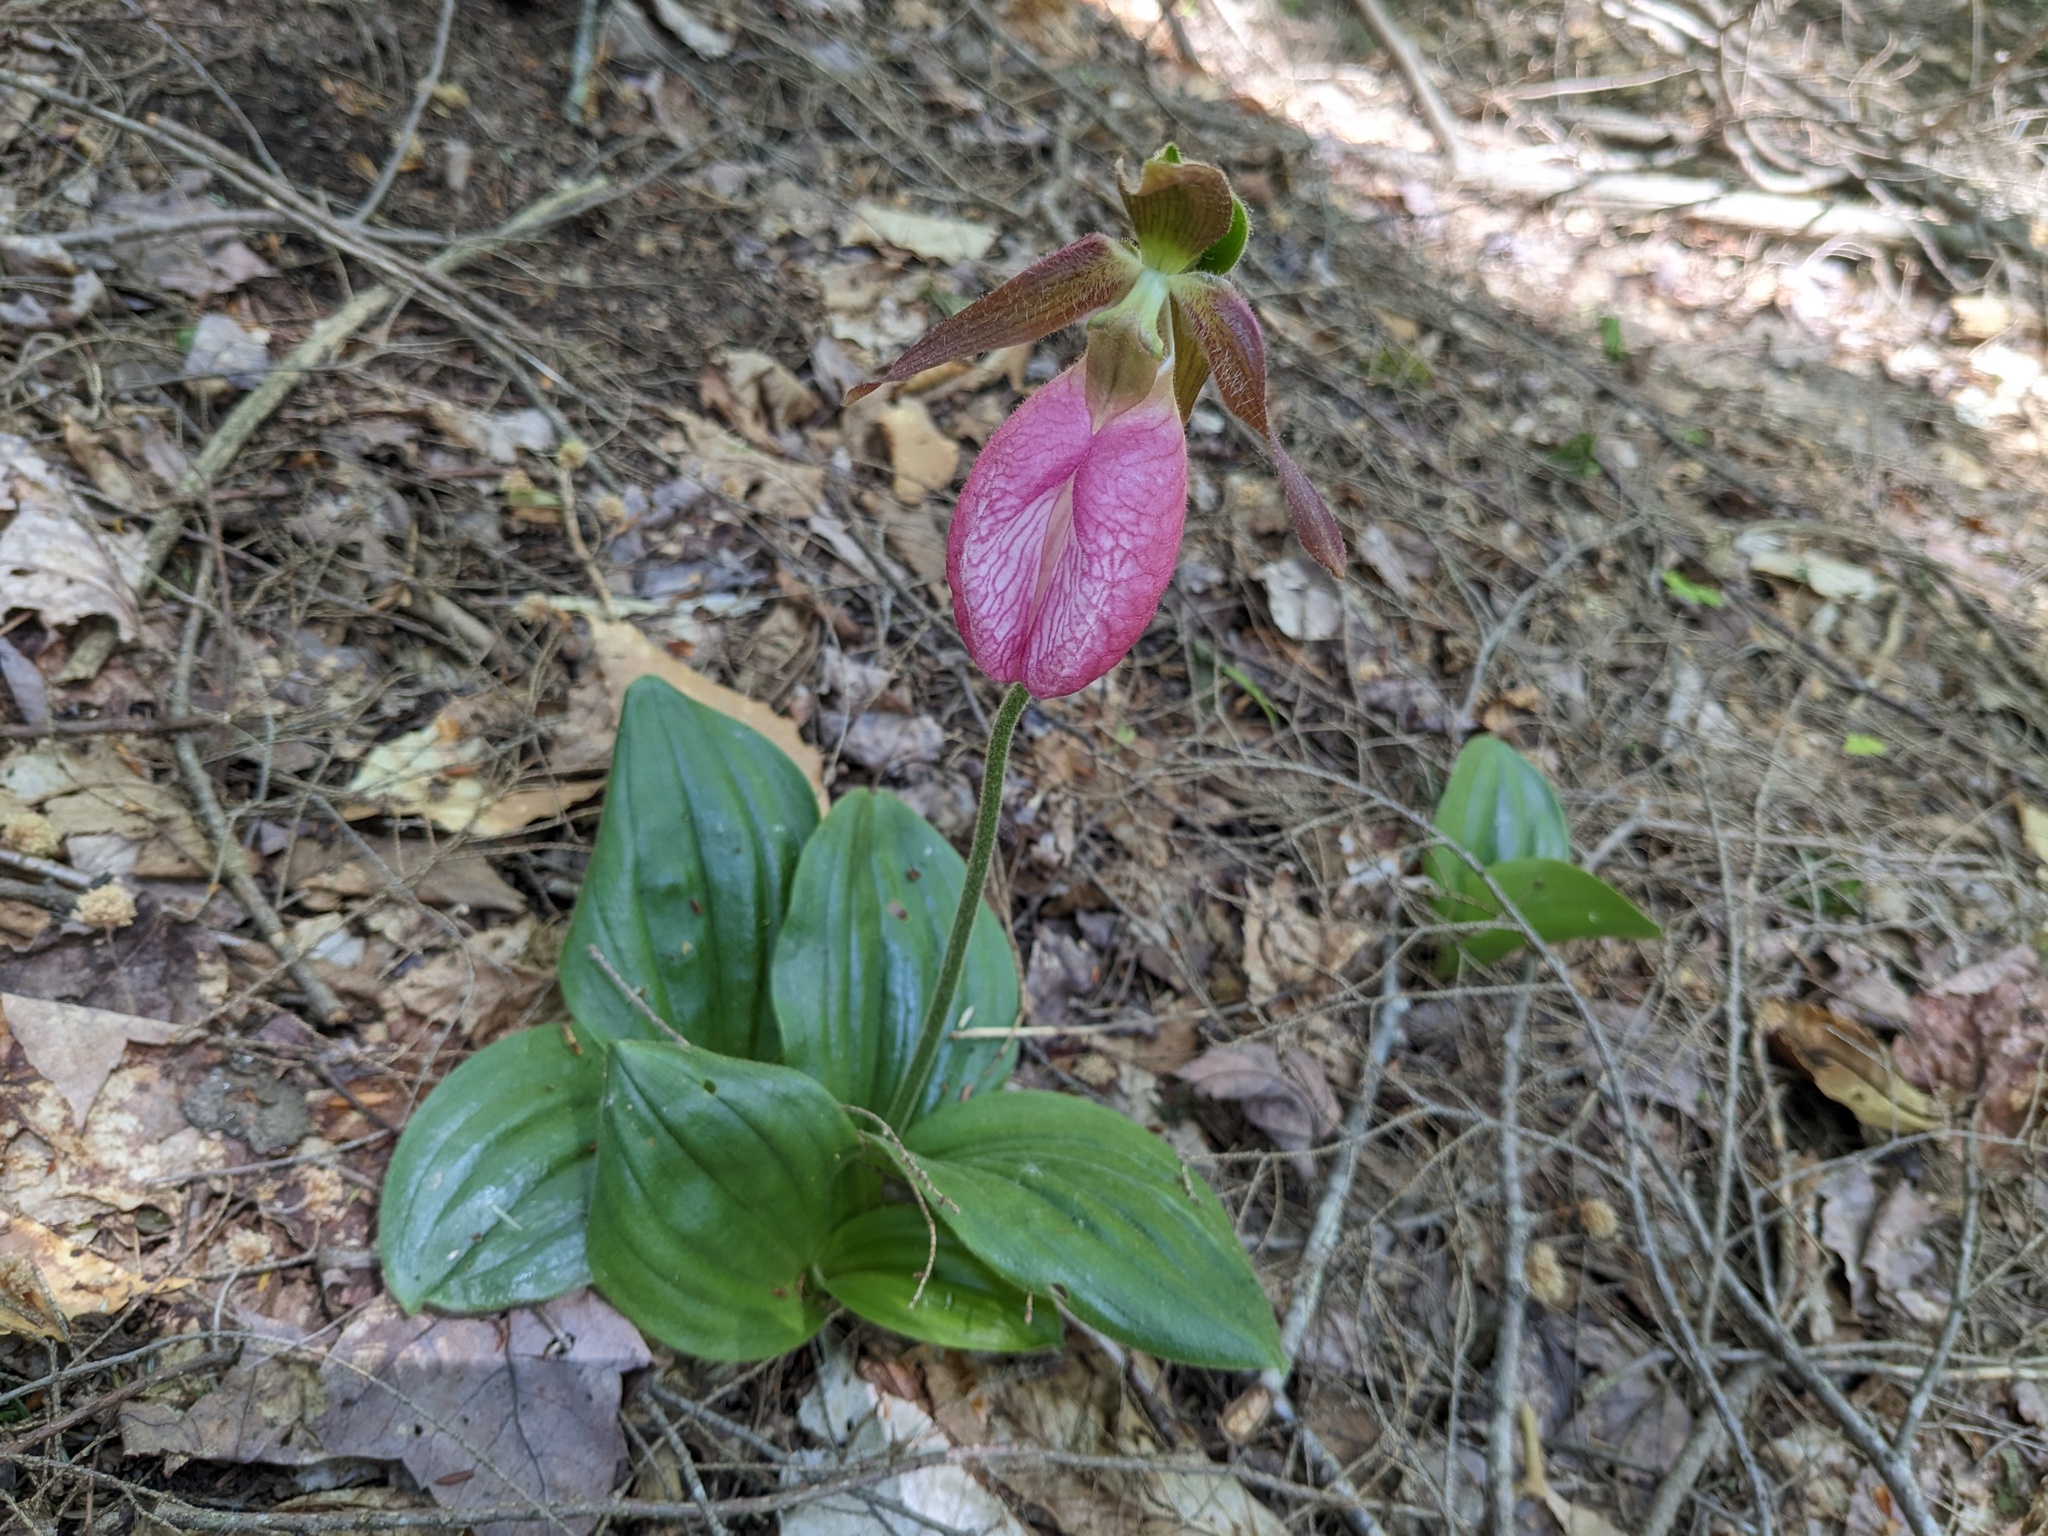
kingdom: Plantae
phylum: Tracheophyta
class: Liliopsida
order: Asparagales
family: Orchidaceae
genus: Cypripedium
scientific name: Cypripedium acaule
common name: Pink lady's-slipper
